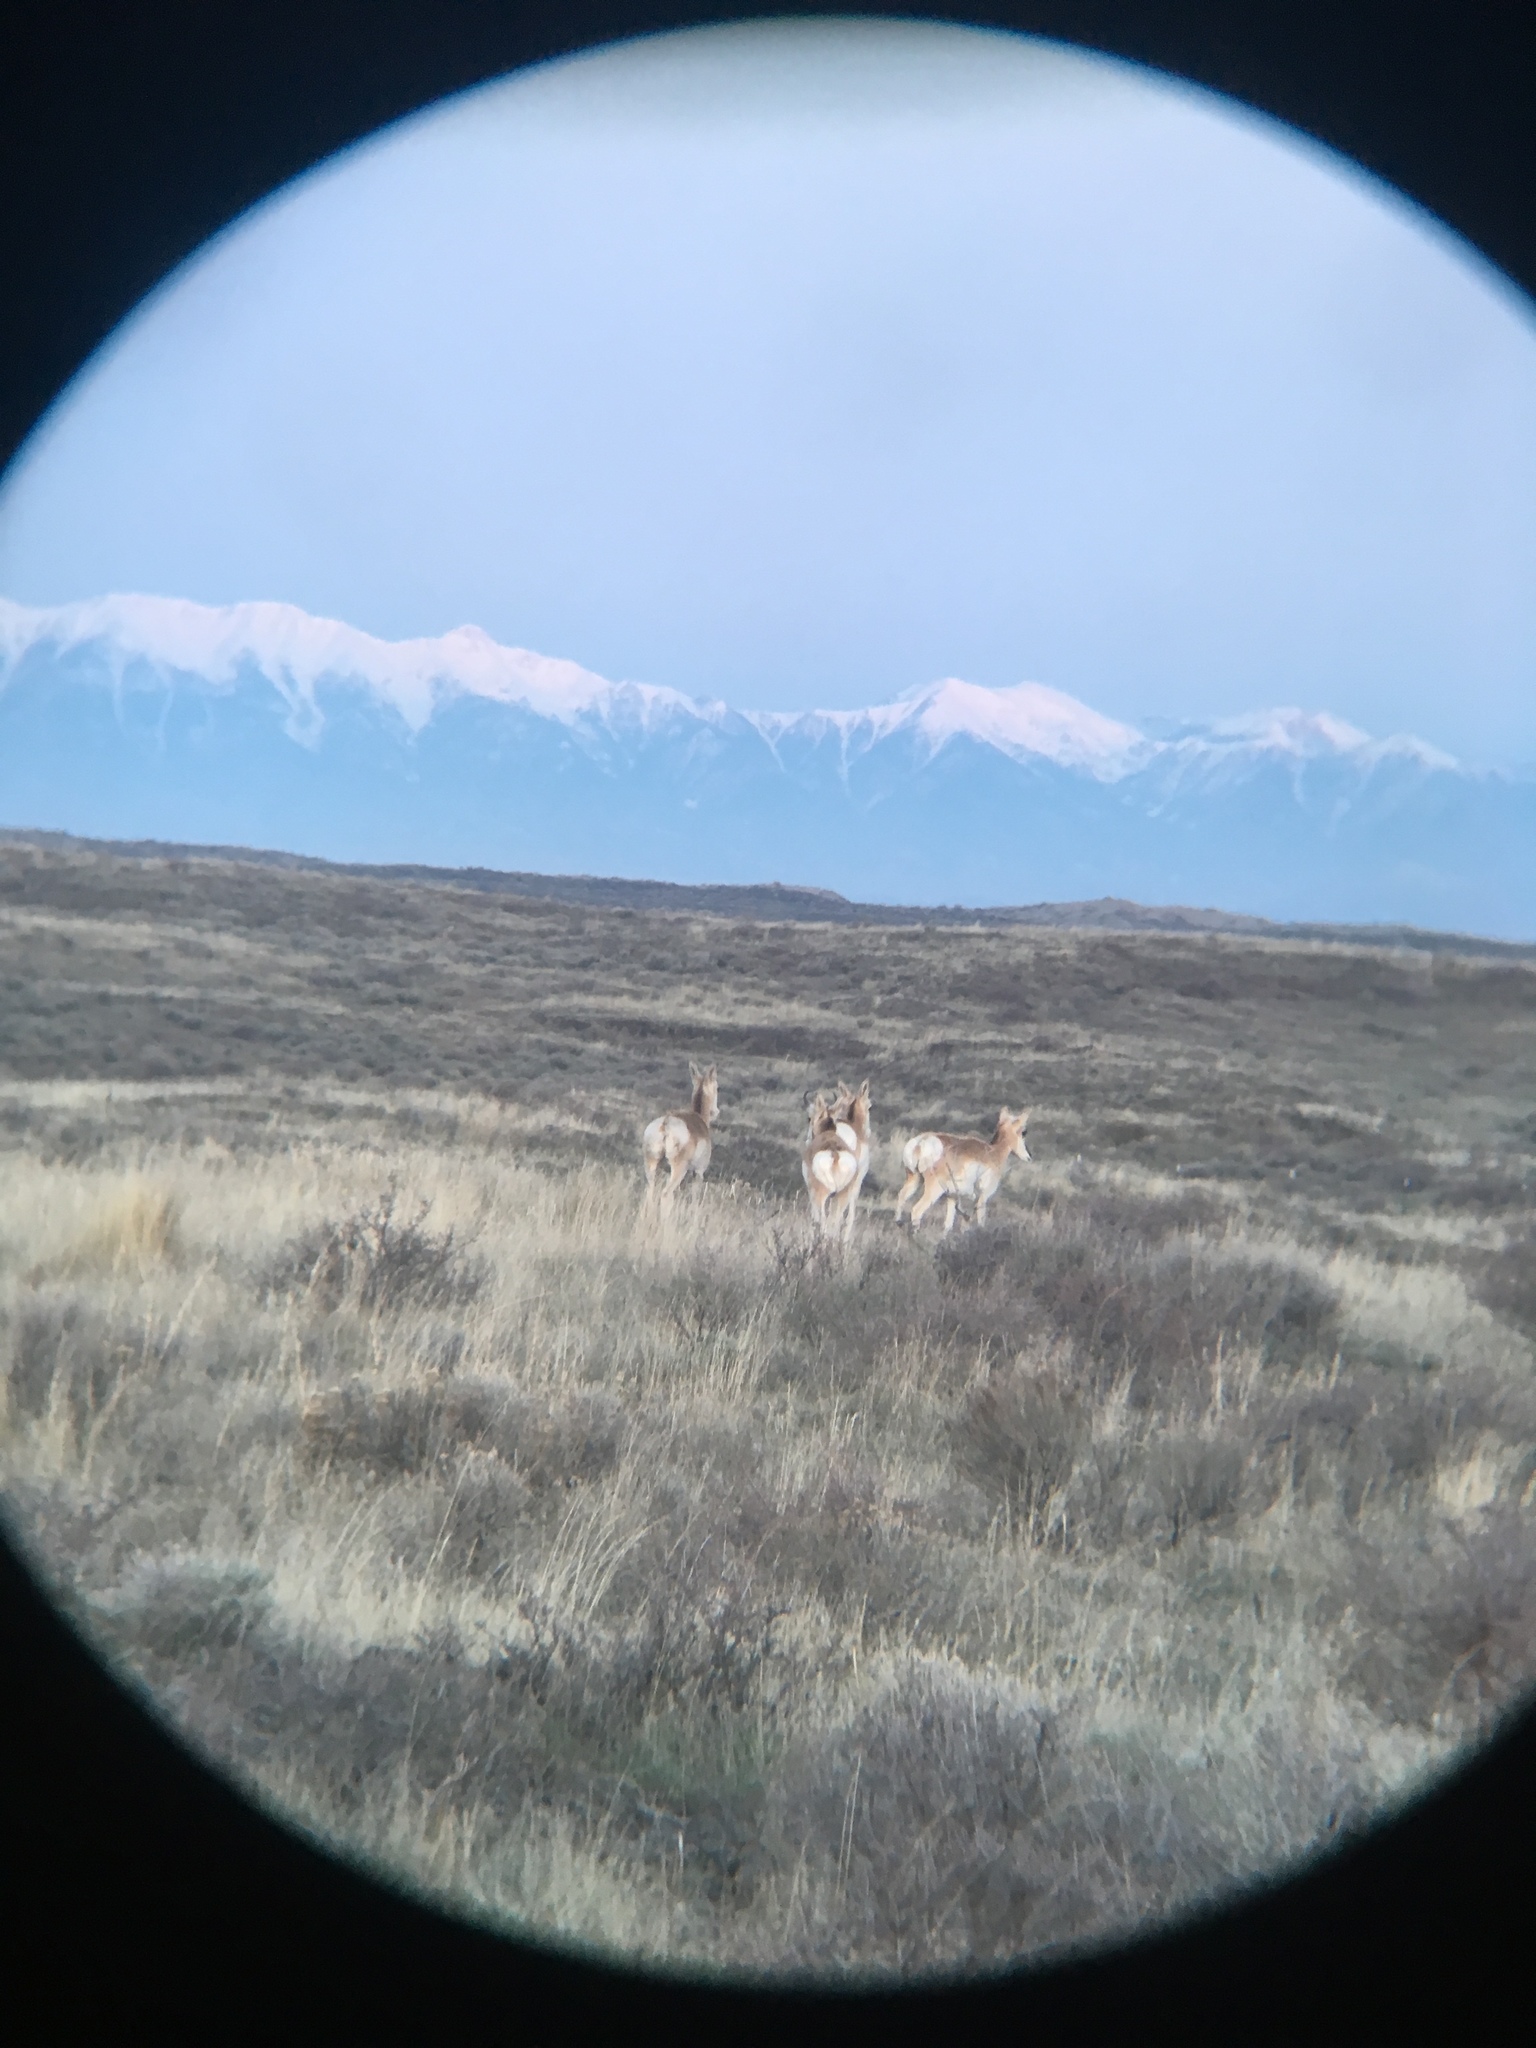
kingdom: Animalia
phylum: Chordata
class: Mammalia
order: Artiodactyla
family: Antilocapridae
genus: Antilocapra
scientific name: Antilocapra americana
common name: Pronghorn
